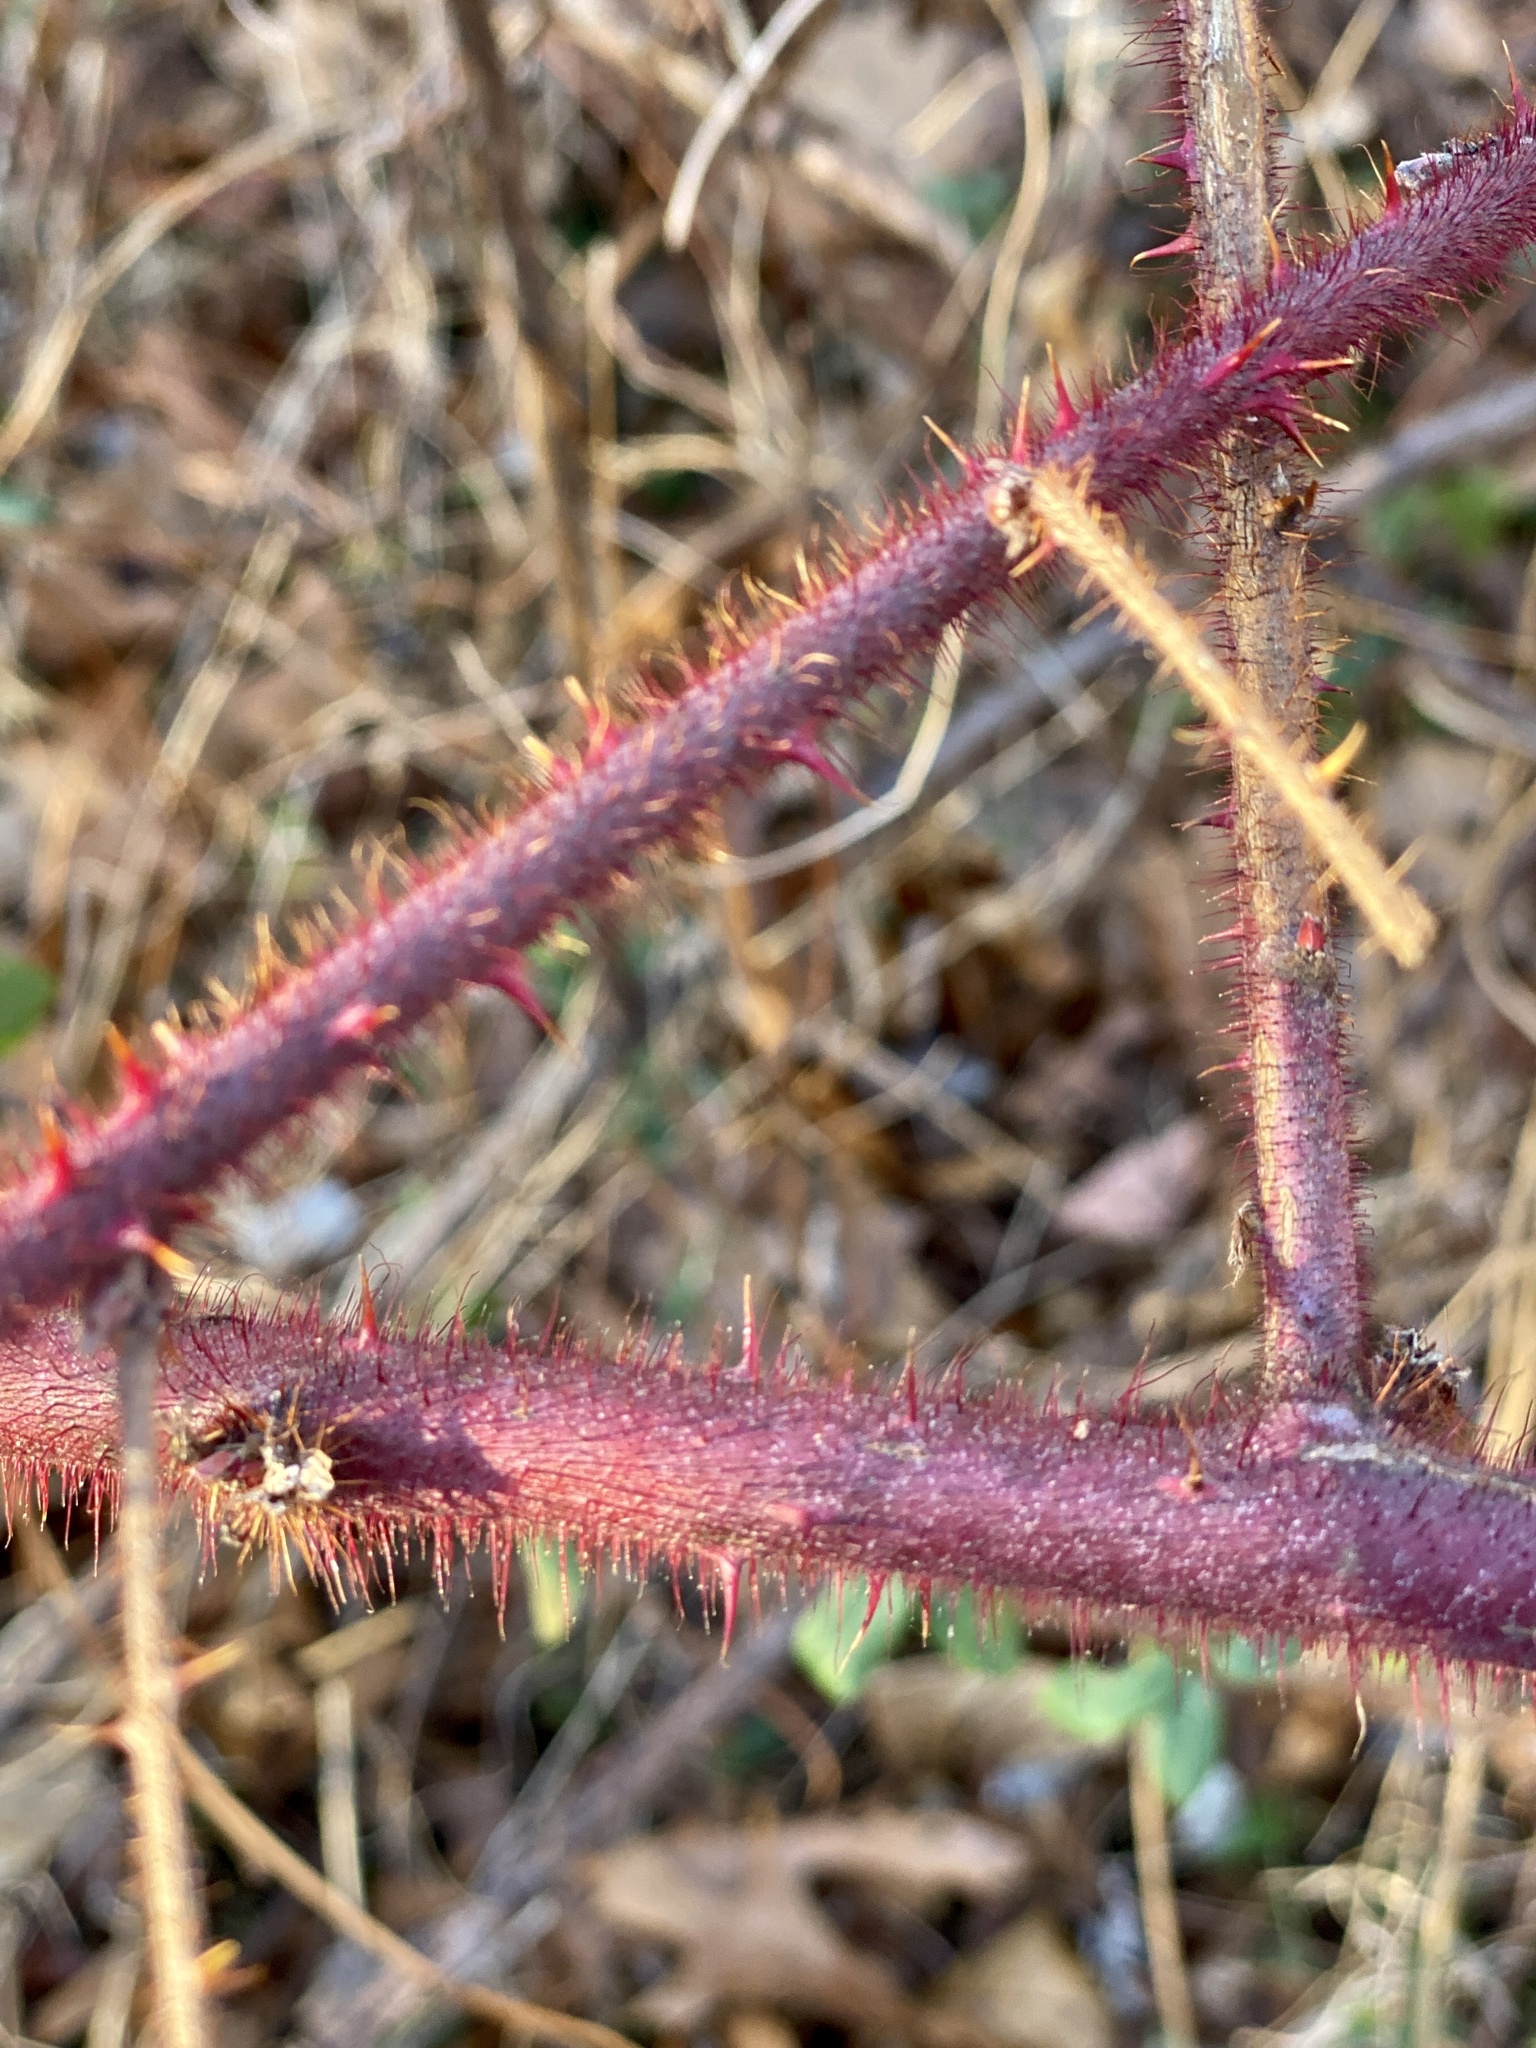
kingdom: Plantae
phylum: Tracheophyta
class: Magnoliopsida
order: Rosales
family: Rosaceae
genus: Rubus
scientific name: Rubus phoenicolasius
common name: Japanese wineberry
